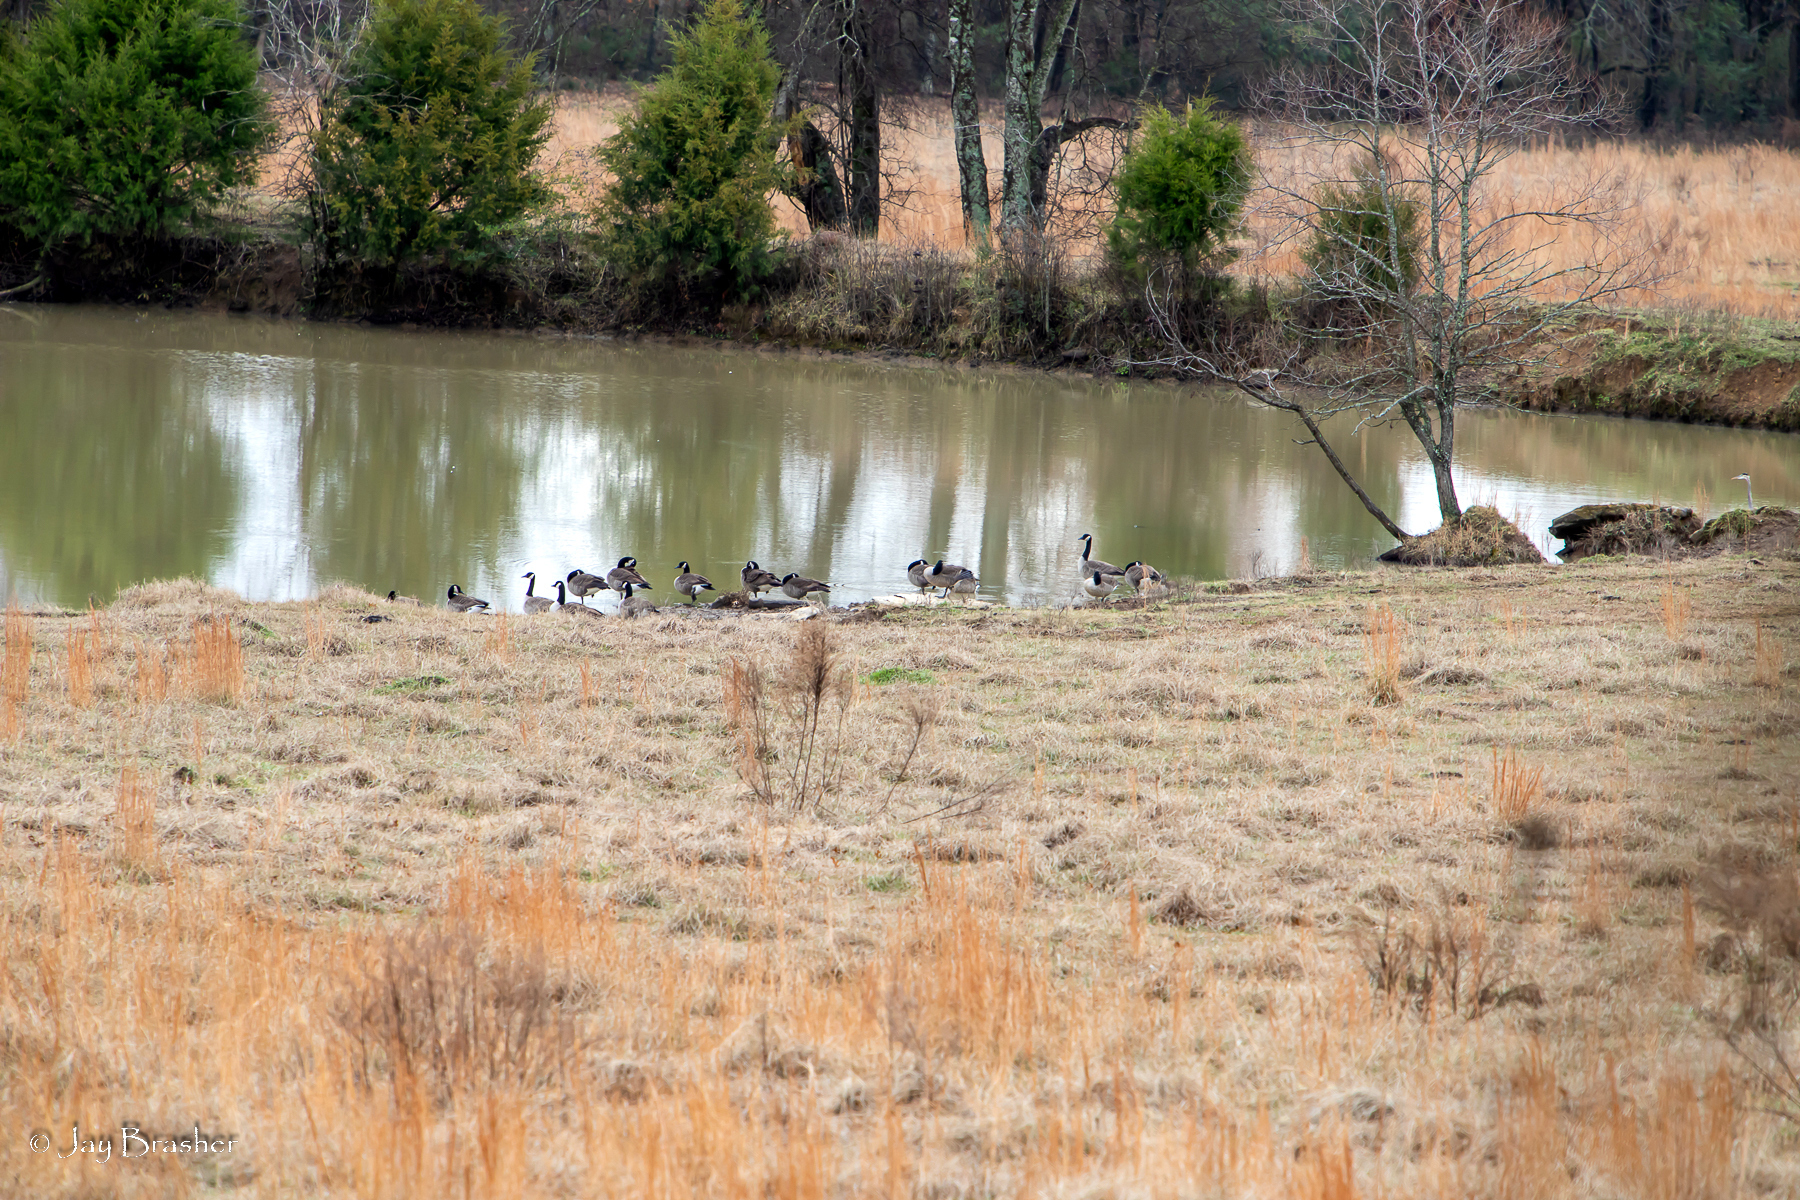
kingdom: Animalia
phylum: Chordata
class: Aves
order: Anseriformes
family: Anatidae
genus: Branta
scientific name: Branta canadensis
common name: Canada goose
